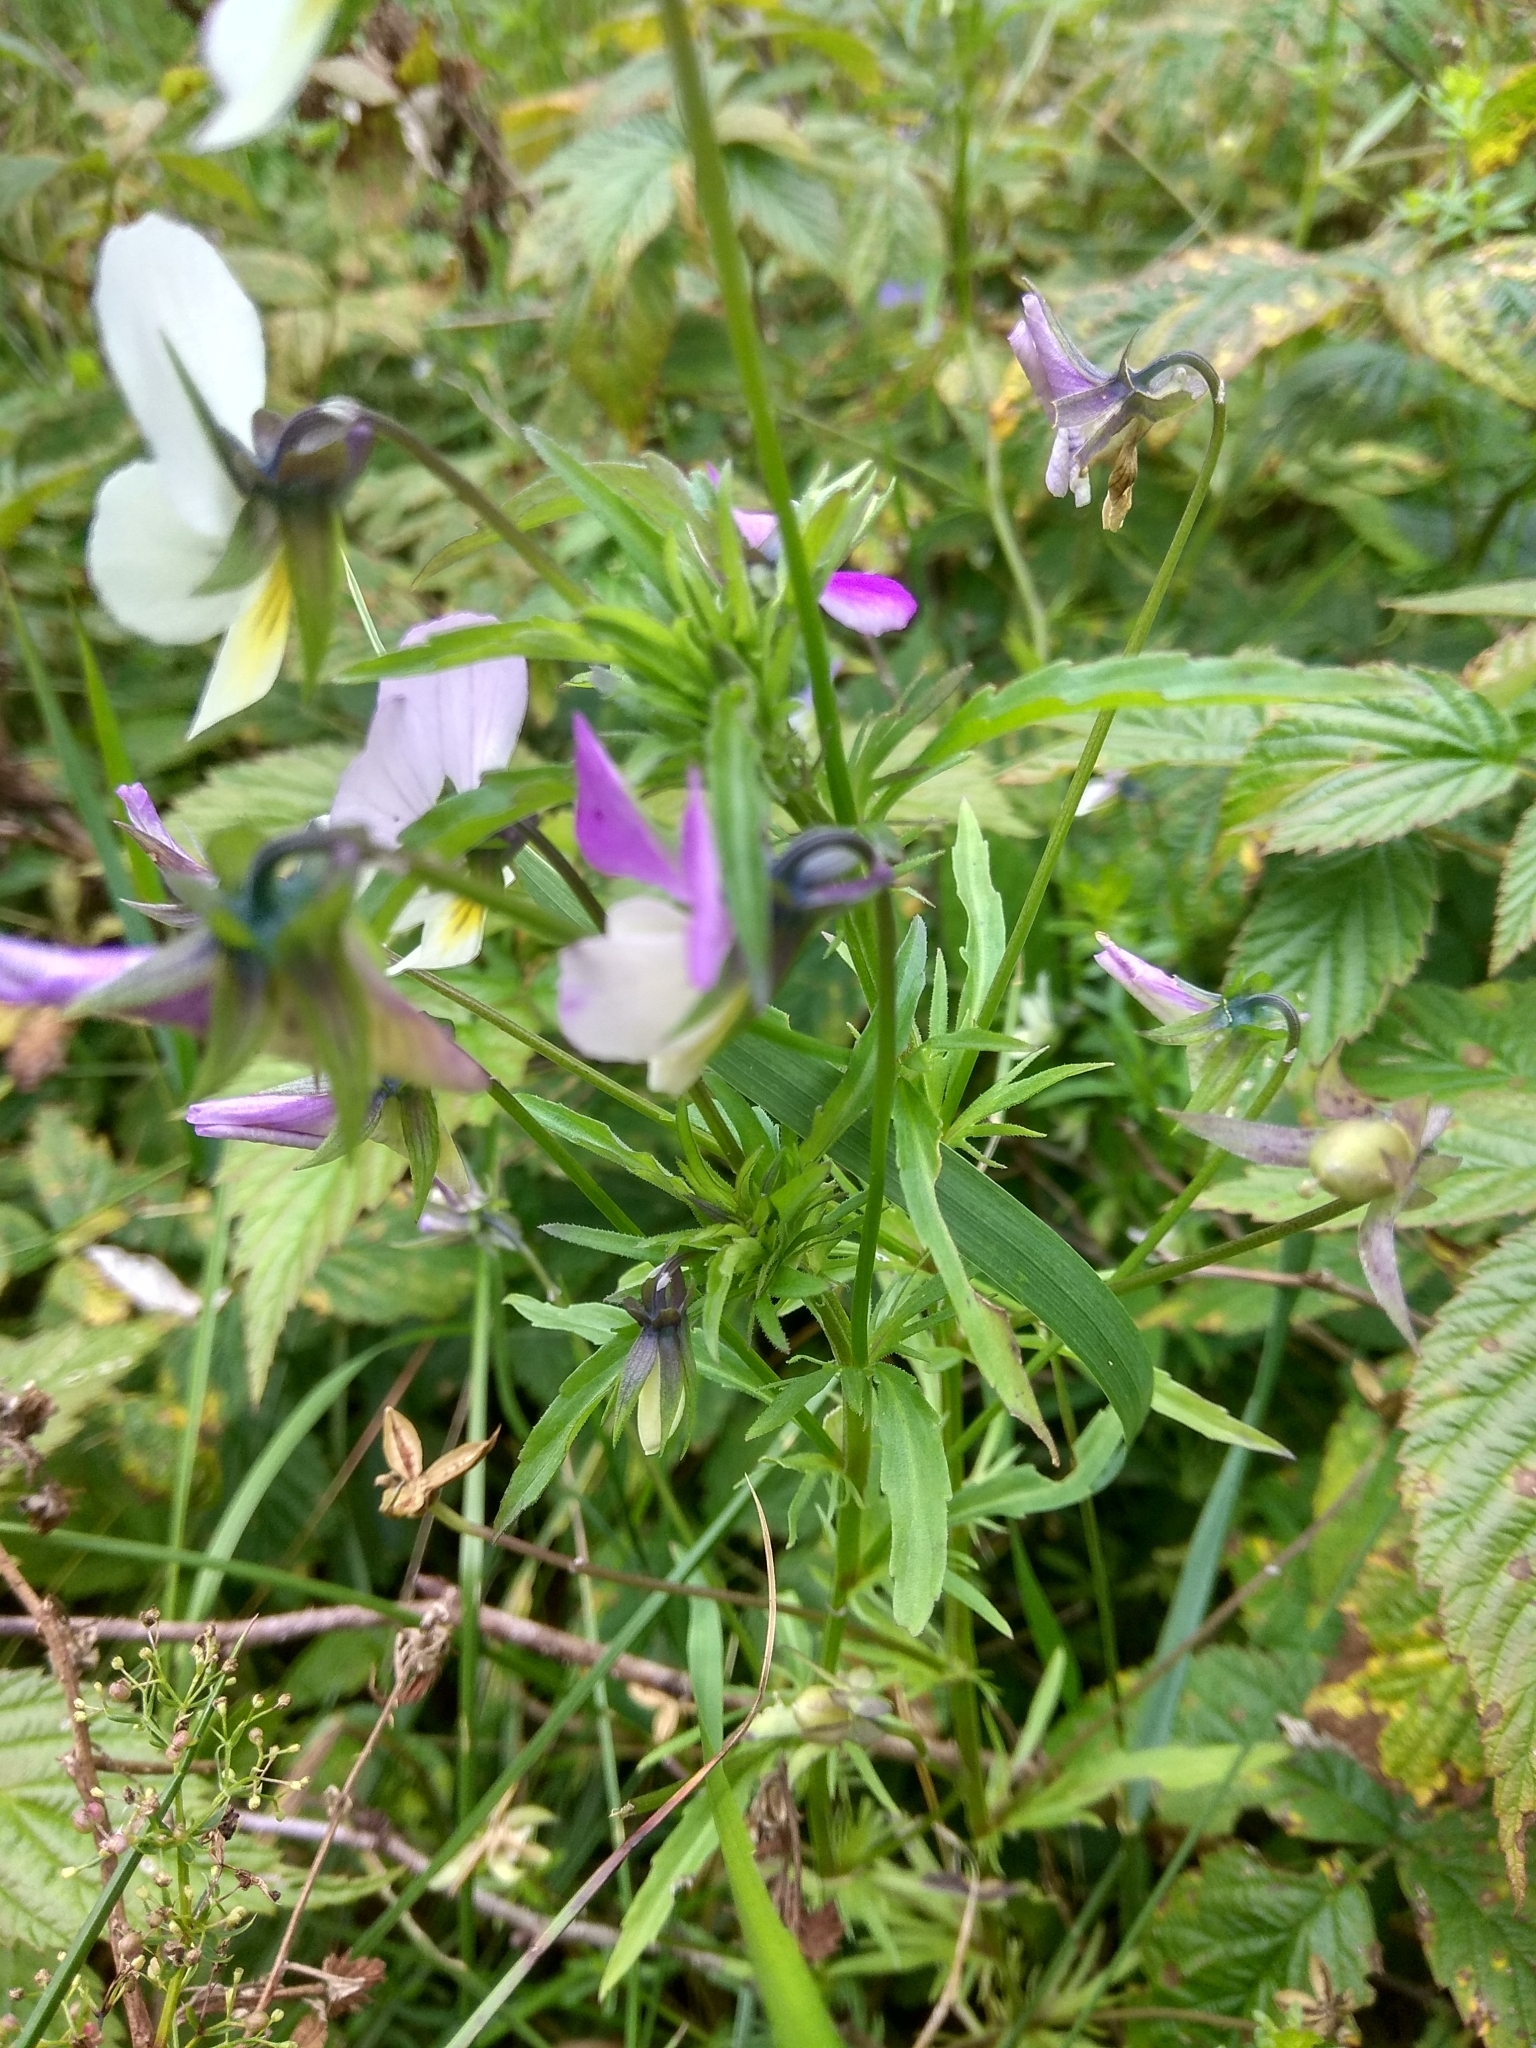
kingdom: Plantae
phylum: Tracheophyta
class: Magnoliopsida
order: Malpighiales
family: Violaceae
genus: Viola
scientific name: Viola tricolor
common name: Pansy
